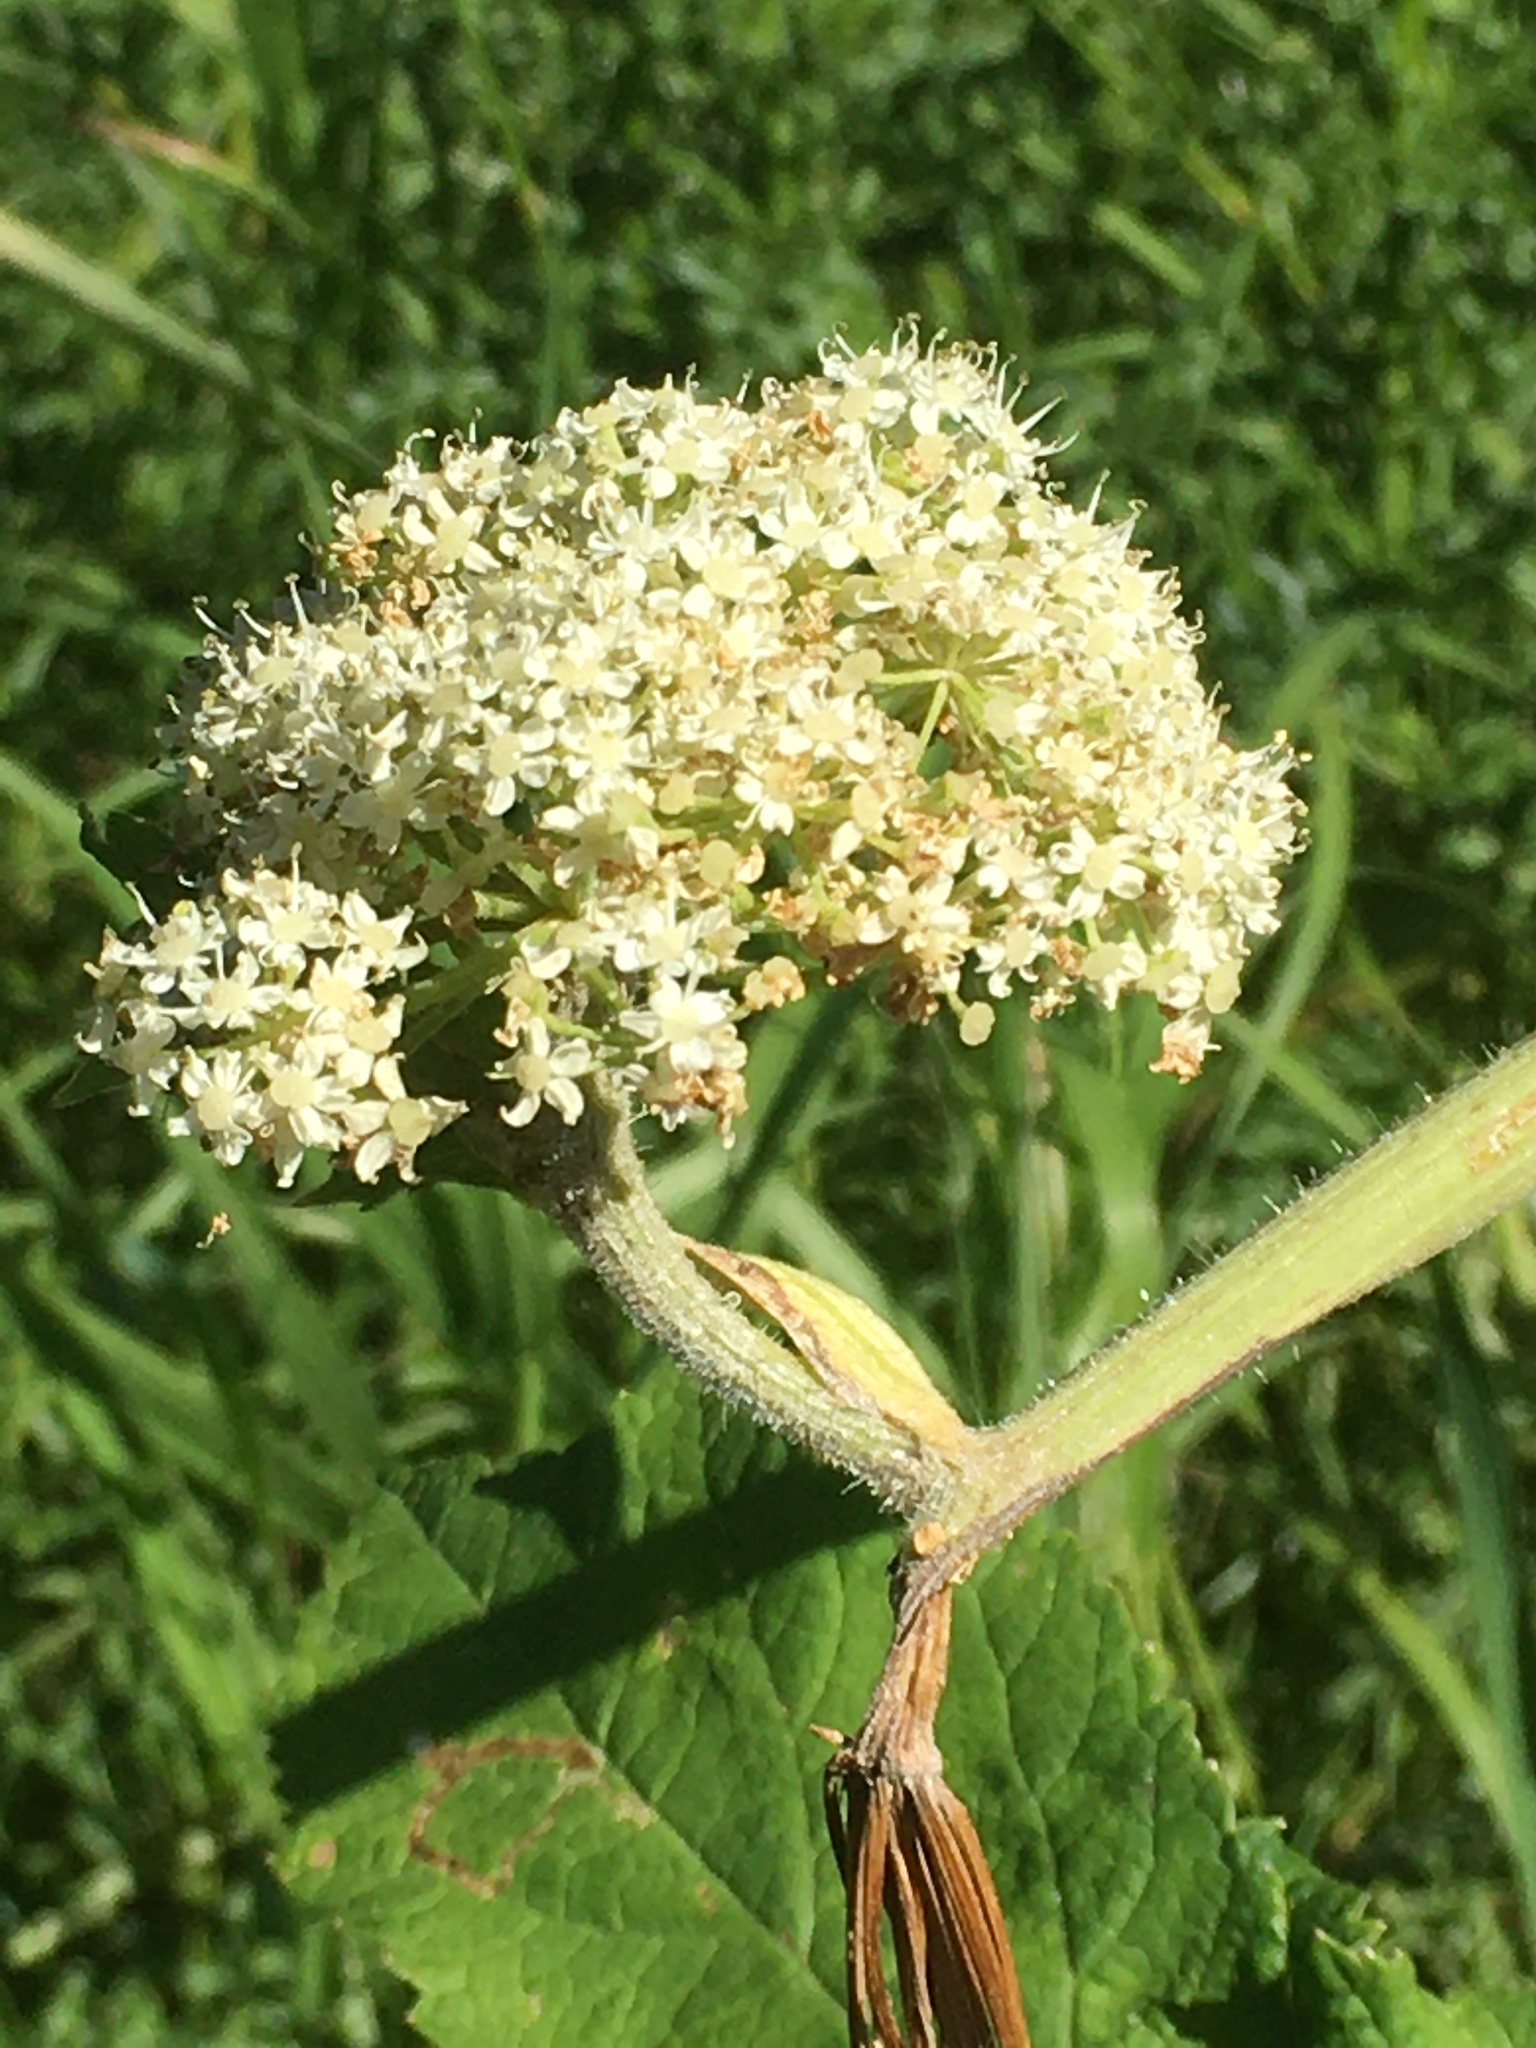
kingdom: Plantae
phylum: Tracheophyta
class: Magnoliopsida
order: Apiales
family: Apiaceae
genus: Heracleum
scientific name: Heracleum maximum
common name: American cow parsnip
